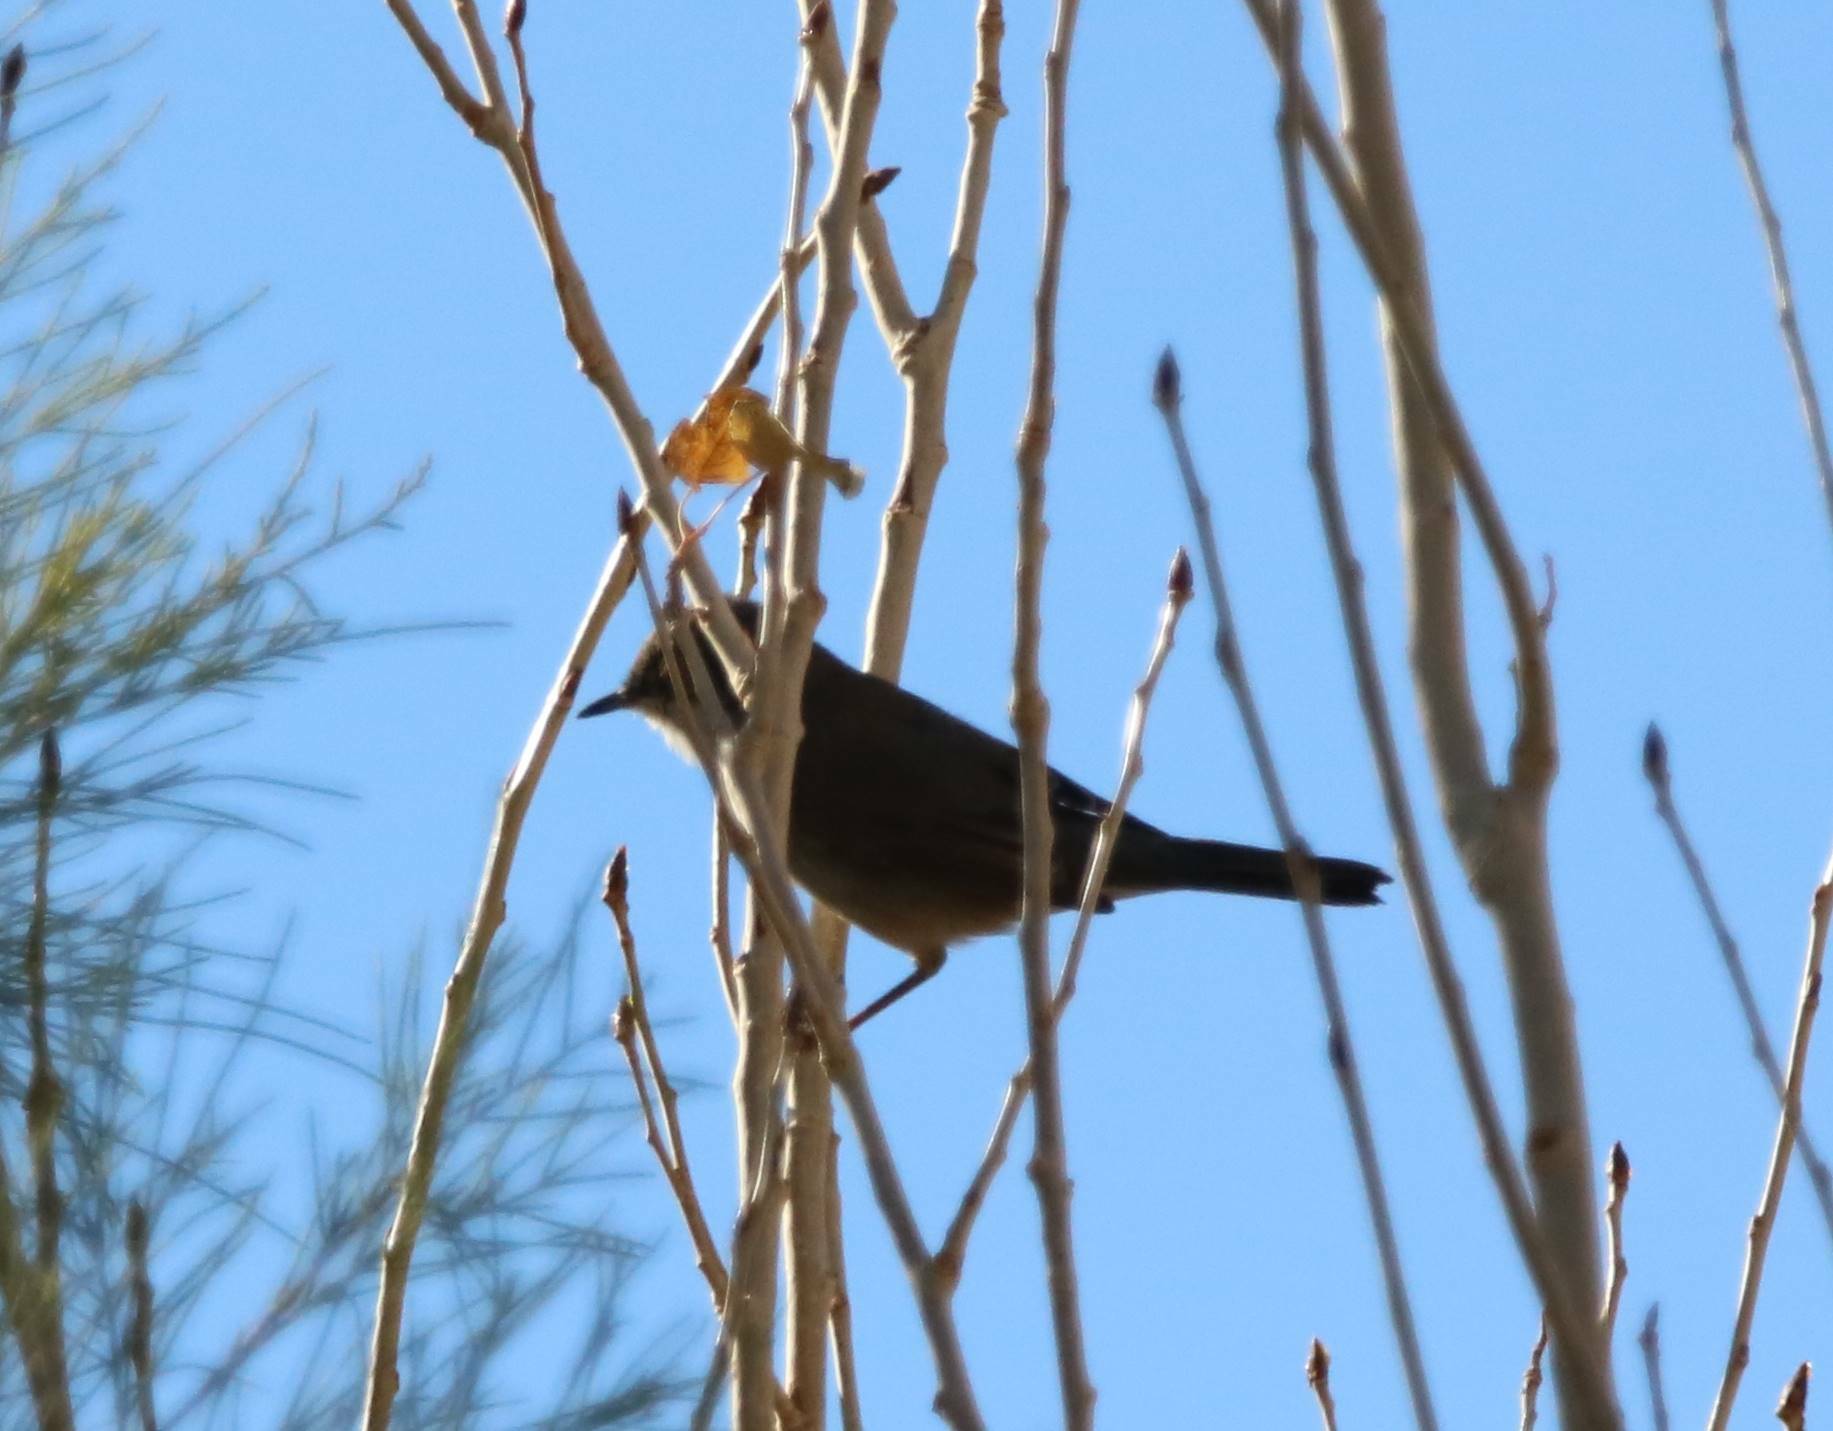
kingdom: Animalia
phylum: Chordata
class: Aves
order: Passeriformes
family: Sylviidae
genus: Curruca
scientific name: Curruca melanocephala
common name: Sardinian warbler
